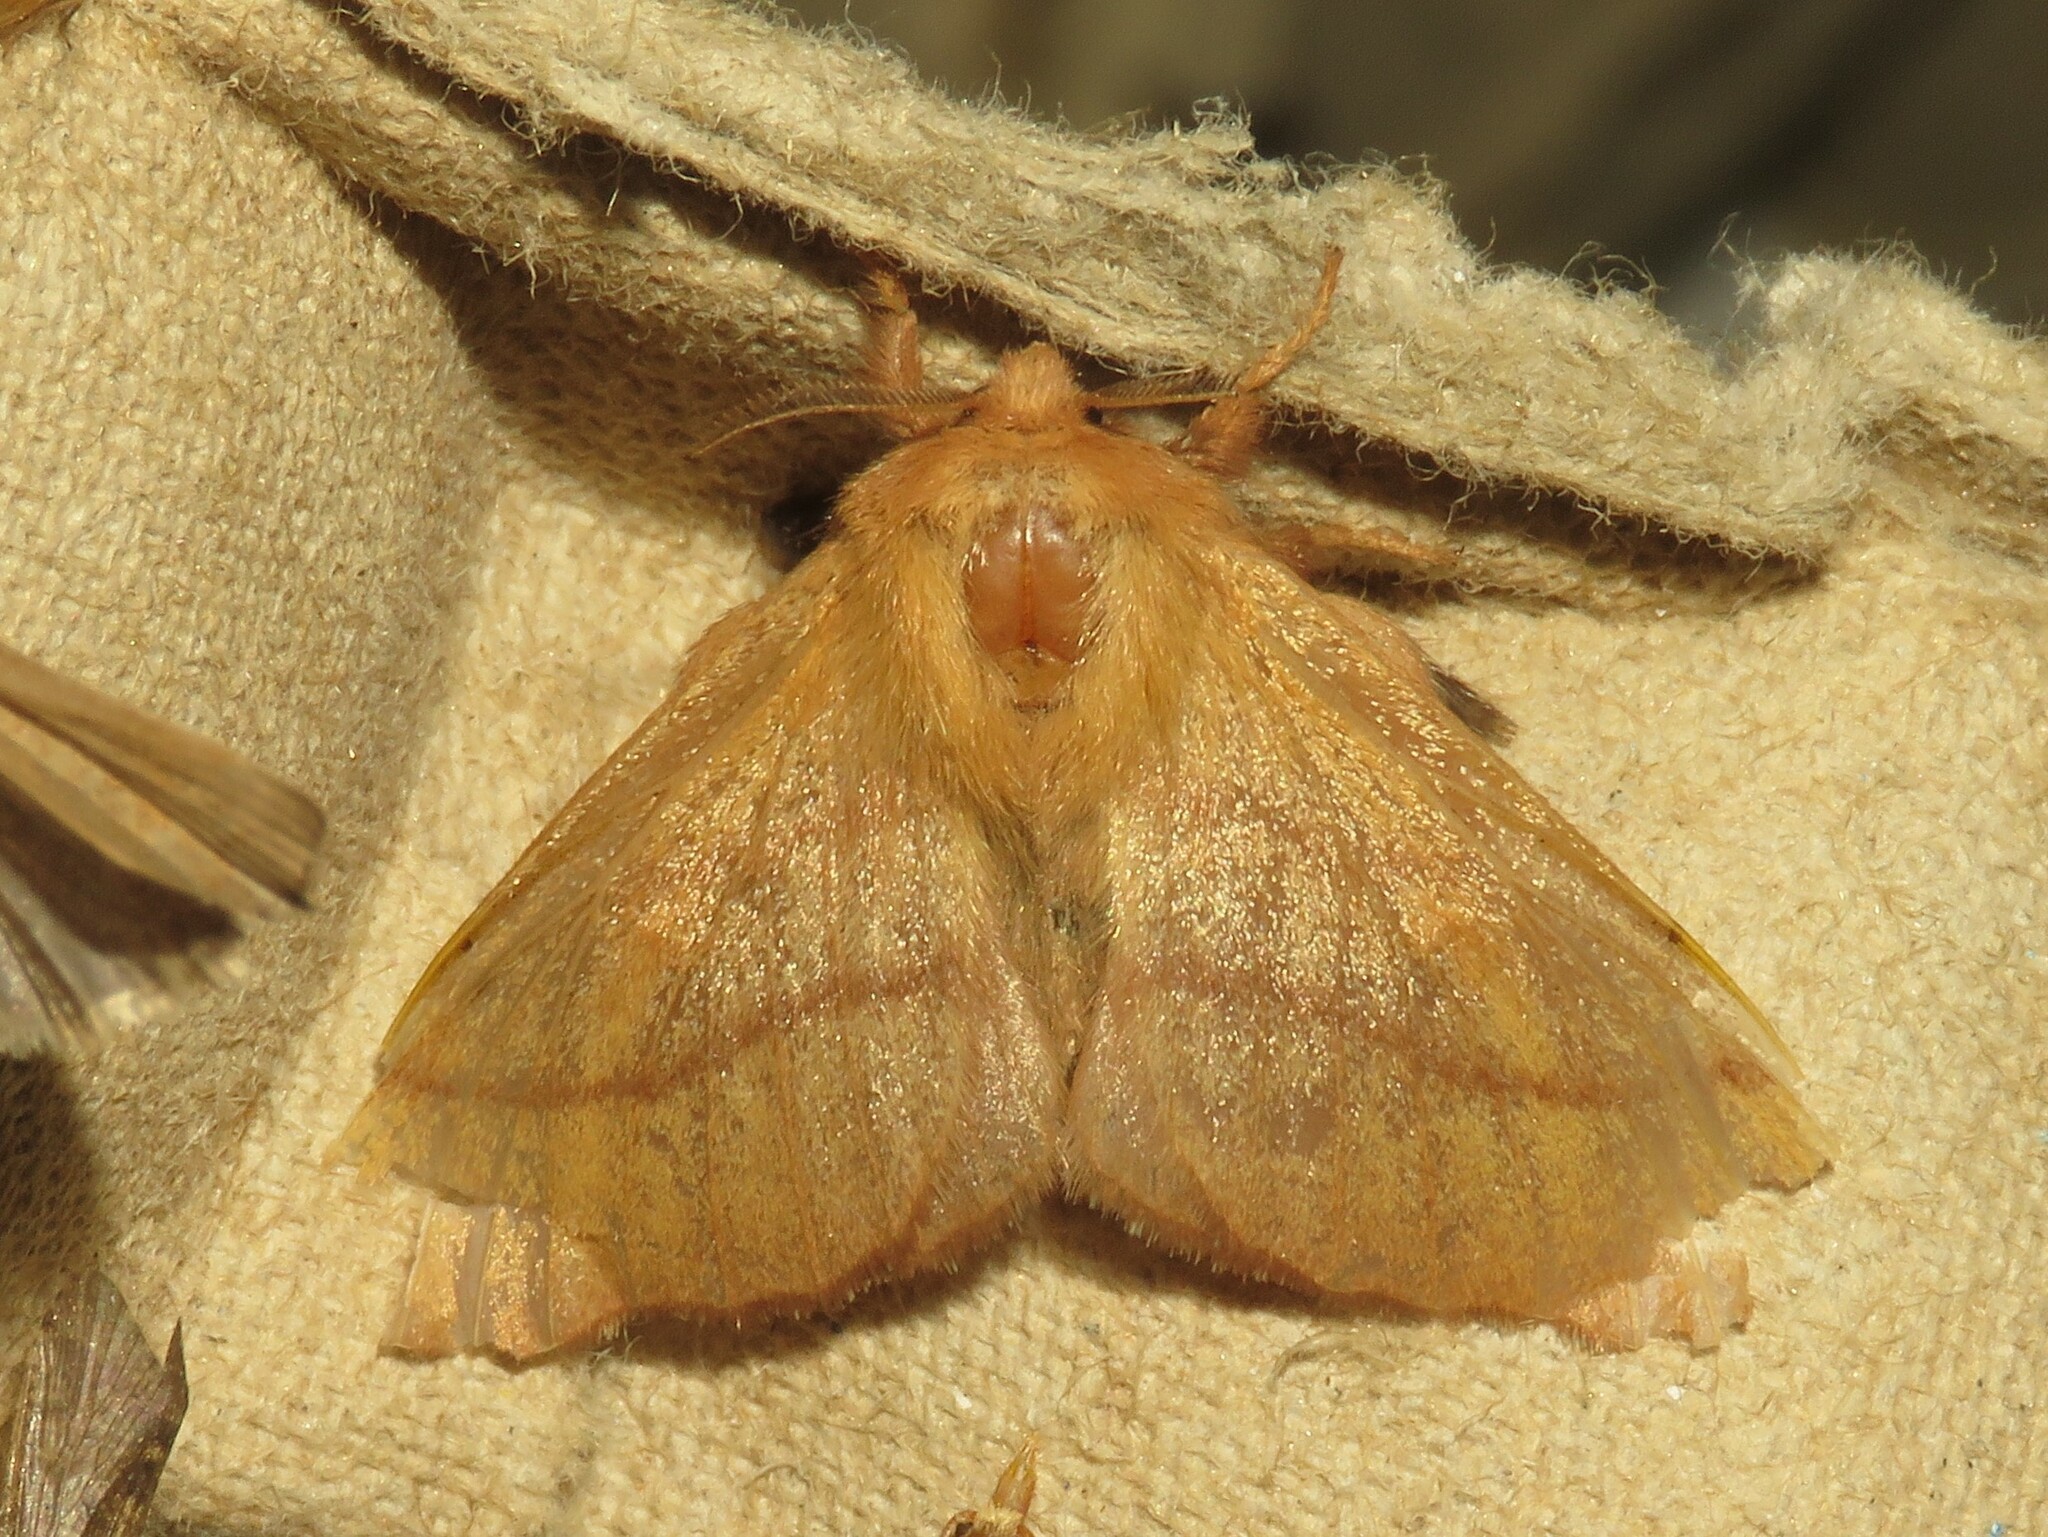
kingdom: Animalia
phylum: Arthropoda
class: Insecta
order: Lepidoptera
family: Lasiocampidae
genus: Malacosoma
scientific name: Malacosoma disstria
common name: Forest tent caterpillar
